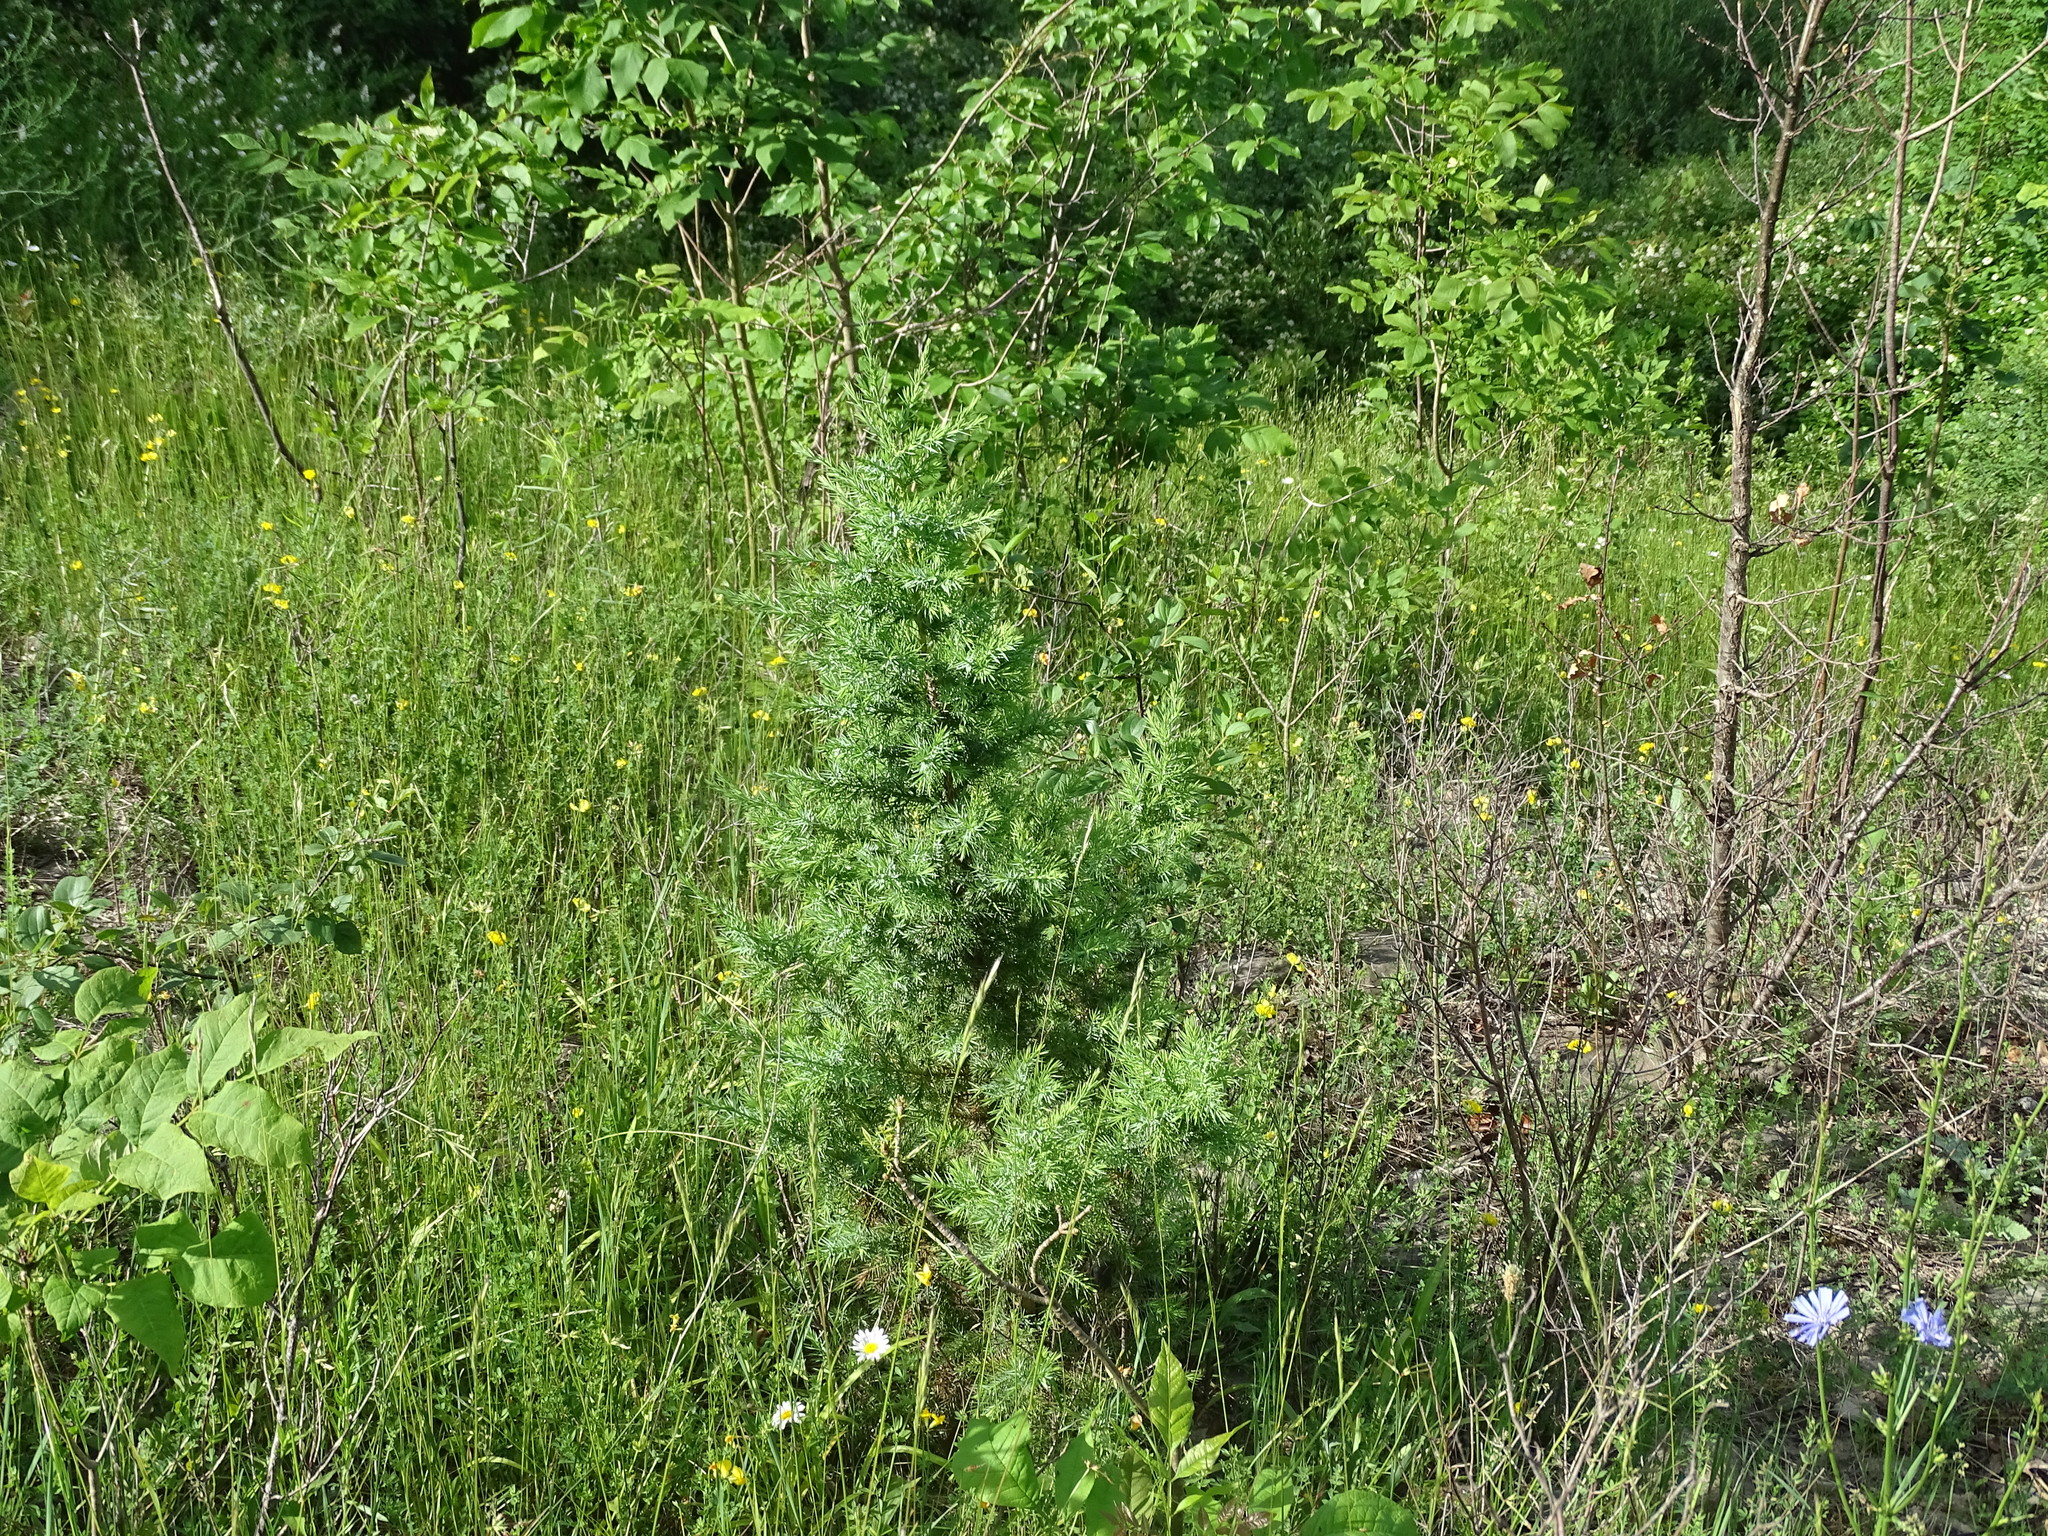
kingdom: Plantae
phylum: Tracheophyta
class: Pinopsida
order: Pinales
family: Cupressaceae
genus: Juniperus
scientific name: Juniperus virginiana
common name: Red juniper
